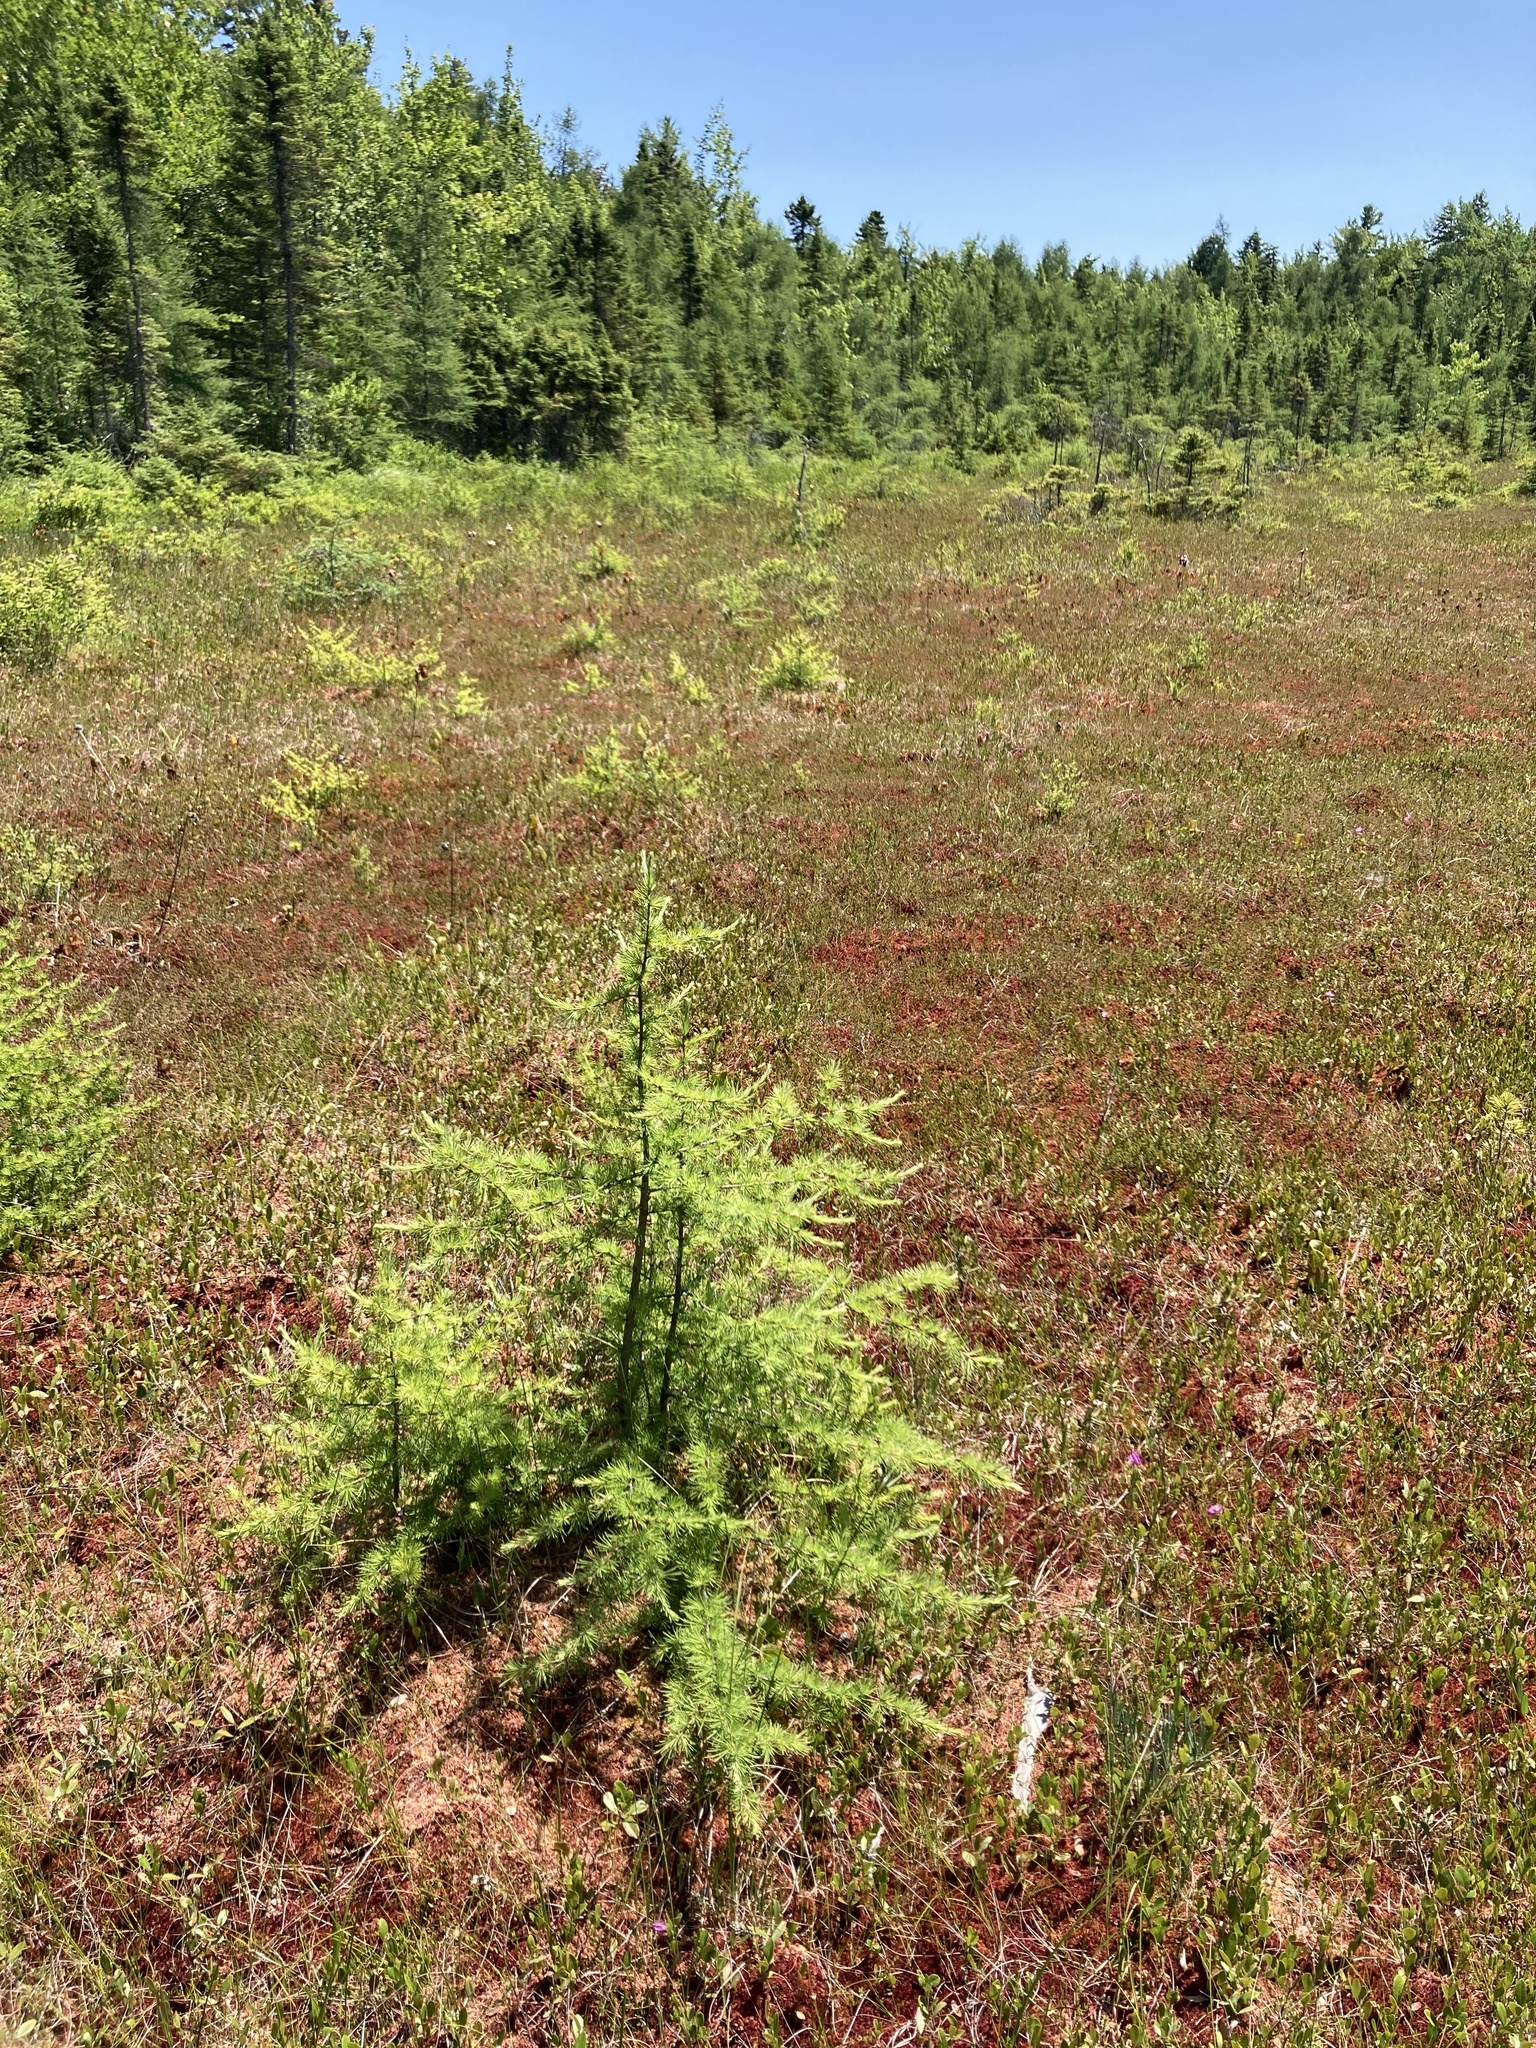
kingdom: Plantae
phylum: Tracheophyta
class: Pinopsida
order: Pinales
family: Pinaceae
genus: Larix
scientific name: Larix laricina
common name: American larch
